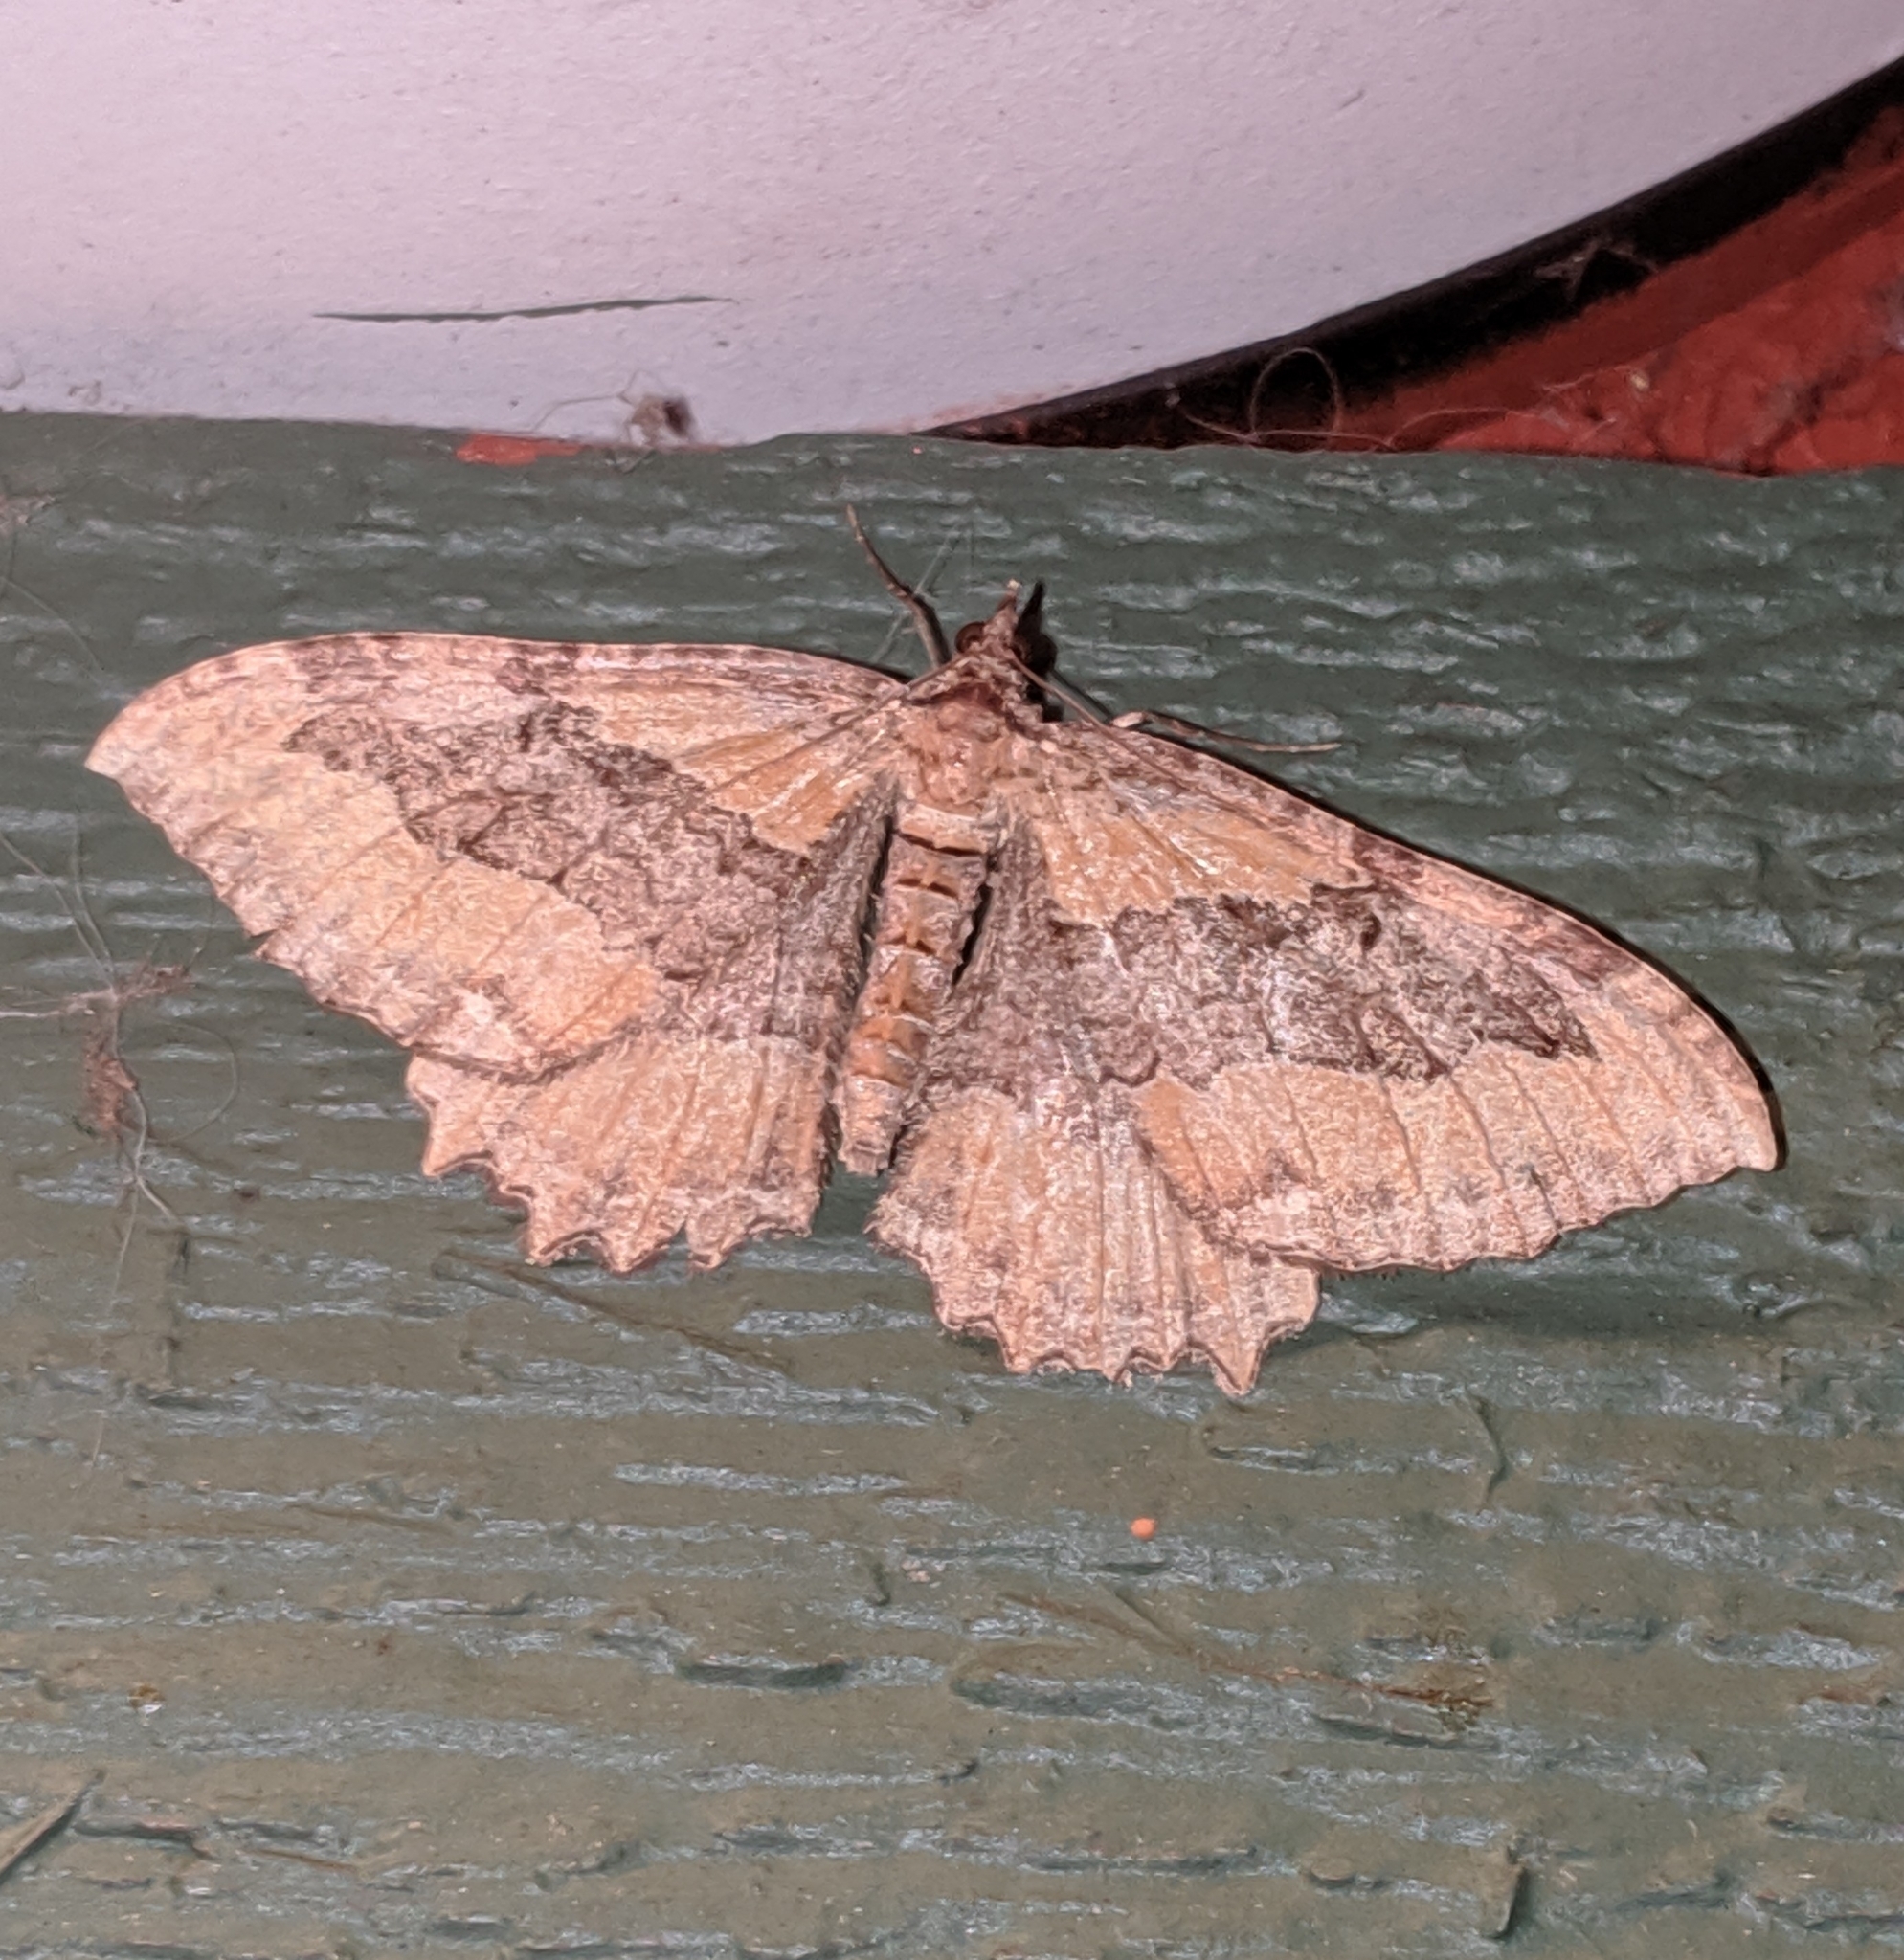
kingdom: Animalia
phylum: Arthropoda
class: Insecta
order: Lepidoptera
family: Geometridae
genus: Rheumaptera
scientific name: Rheumaptera
